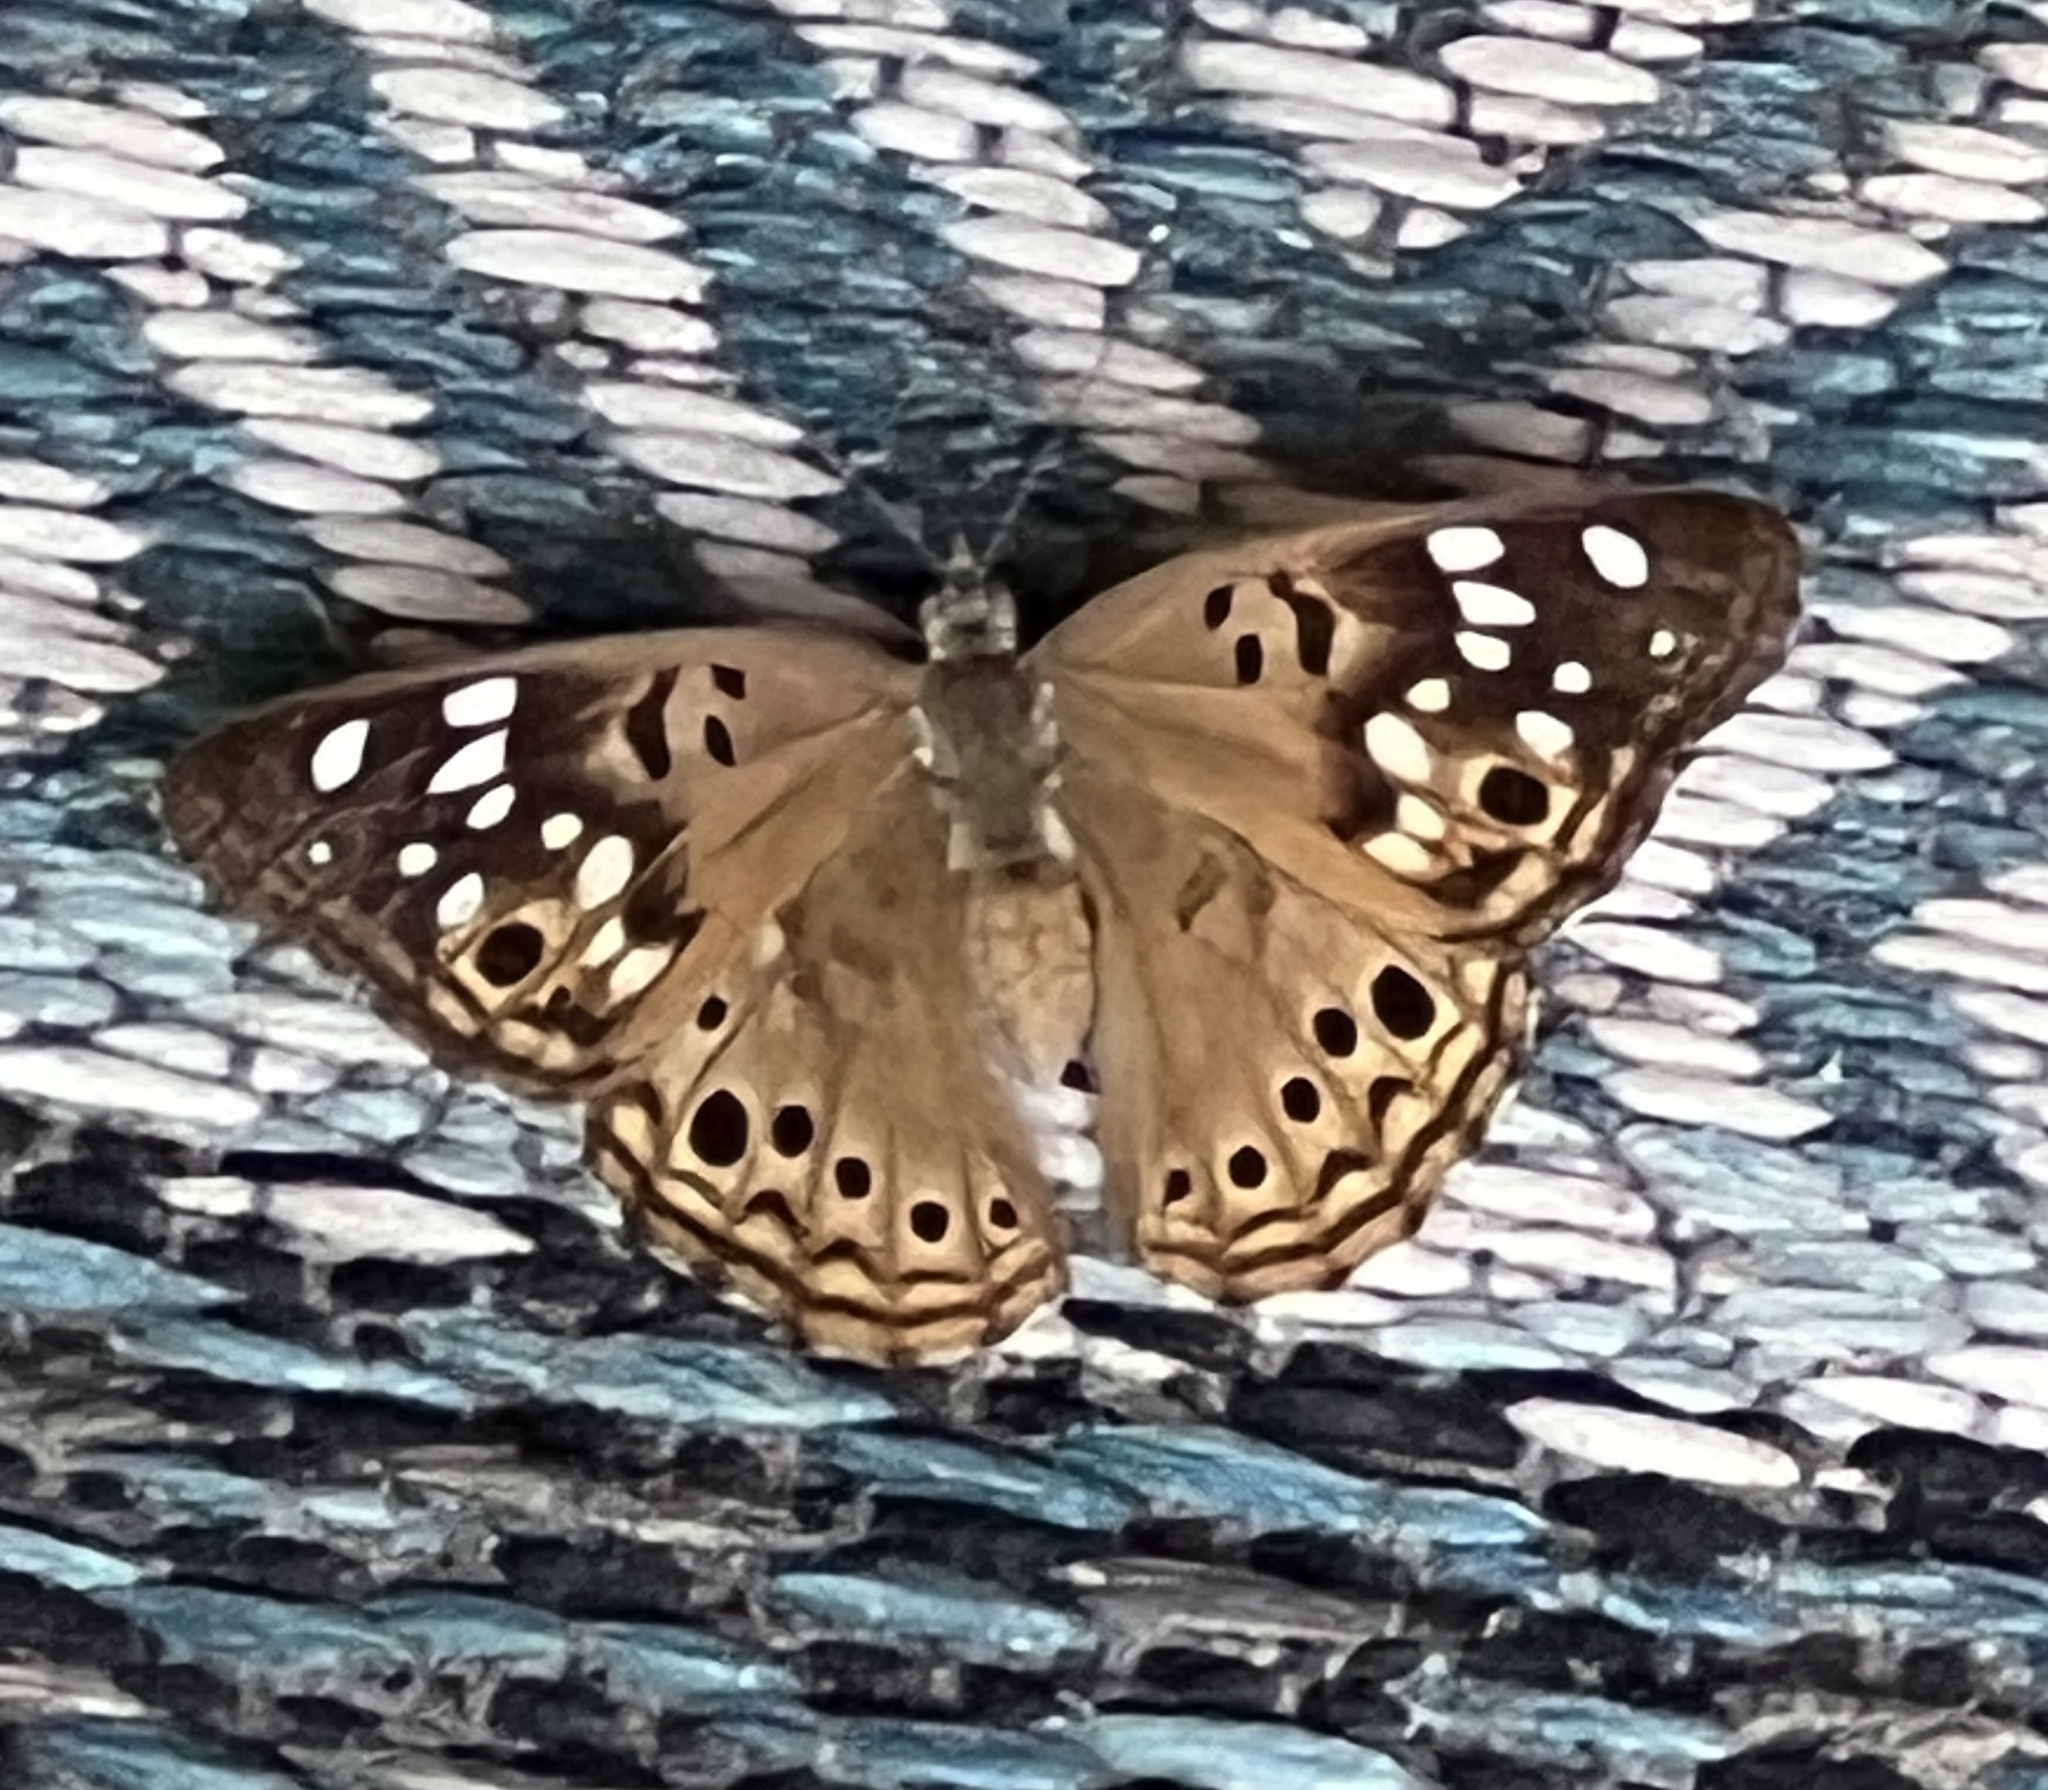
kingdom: Animalia
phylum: Arthropoda
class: Insecta
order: Lepidoptera
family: Nymphalidae
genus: Asterocampa
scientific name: Asterocampa celtis
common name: Hackberry emperor
